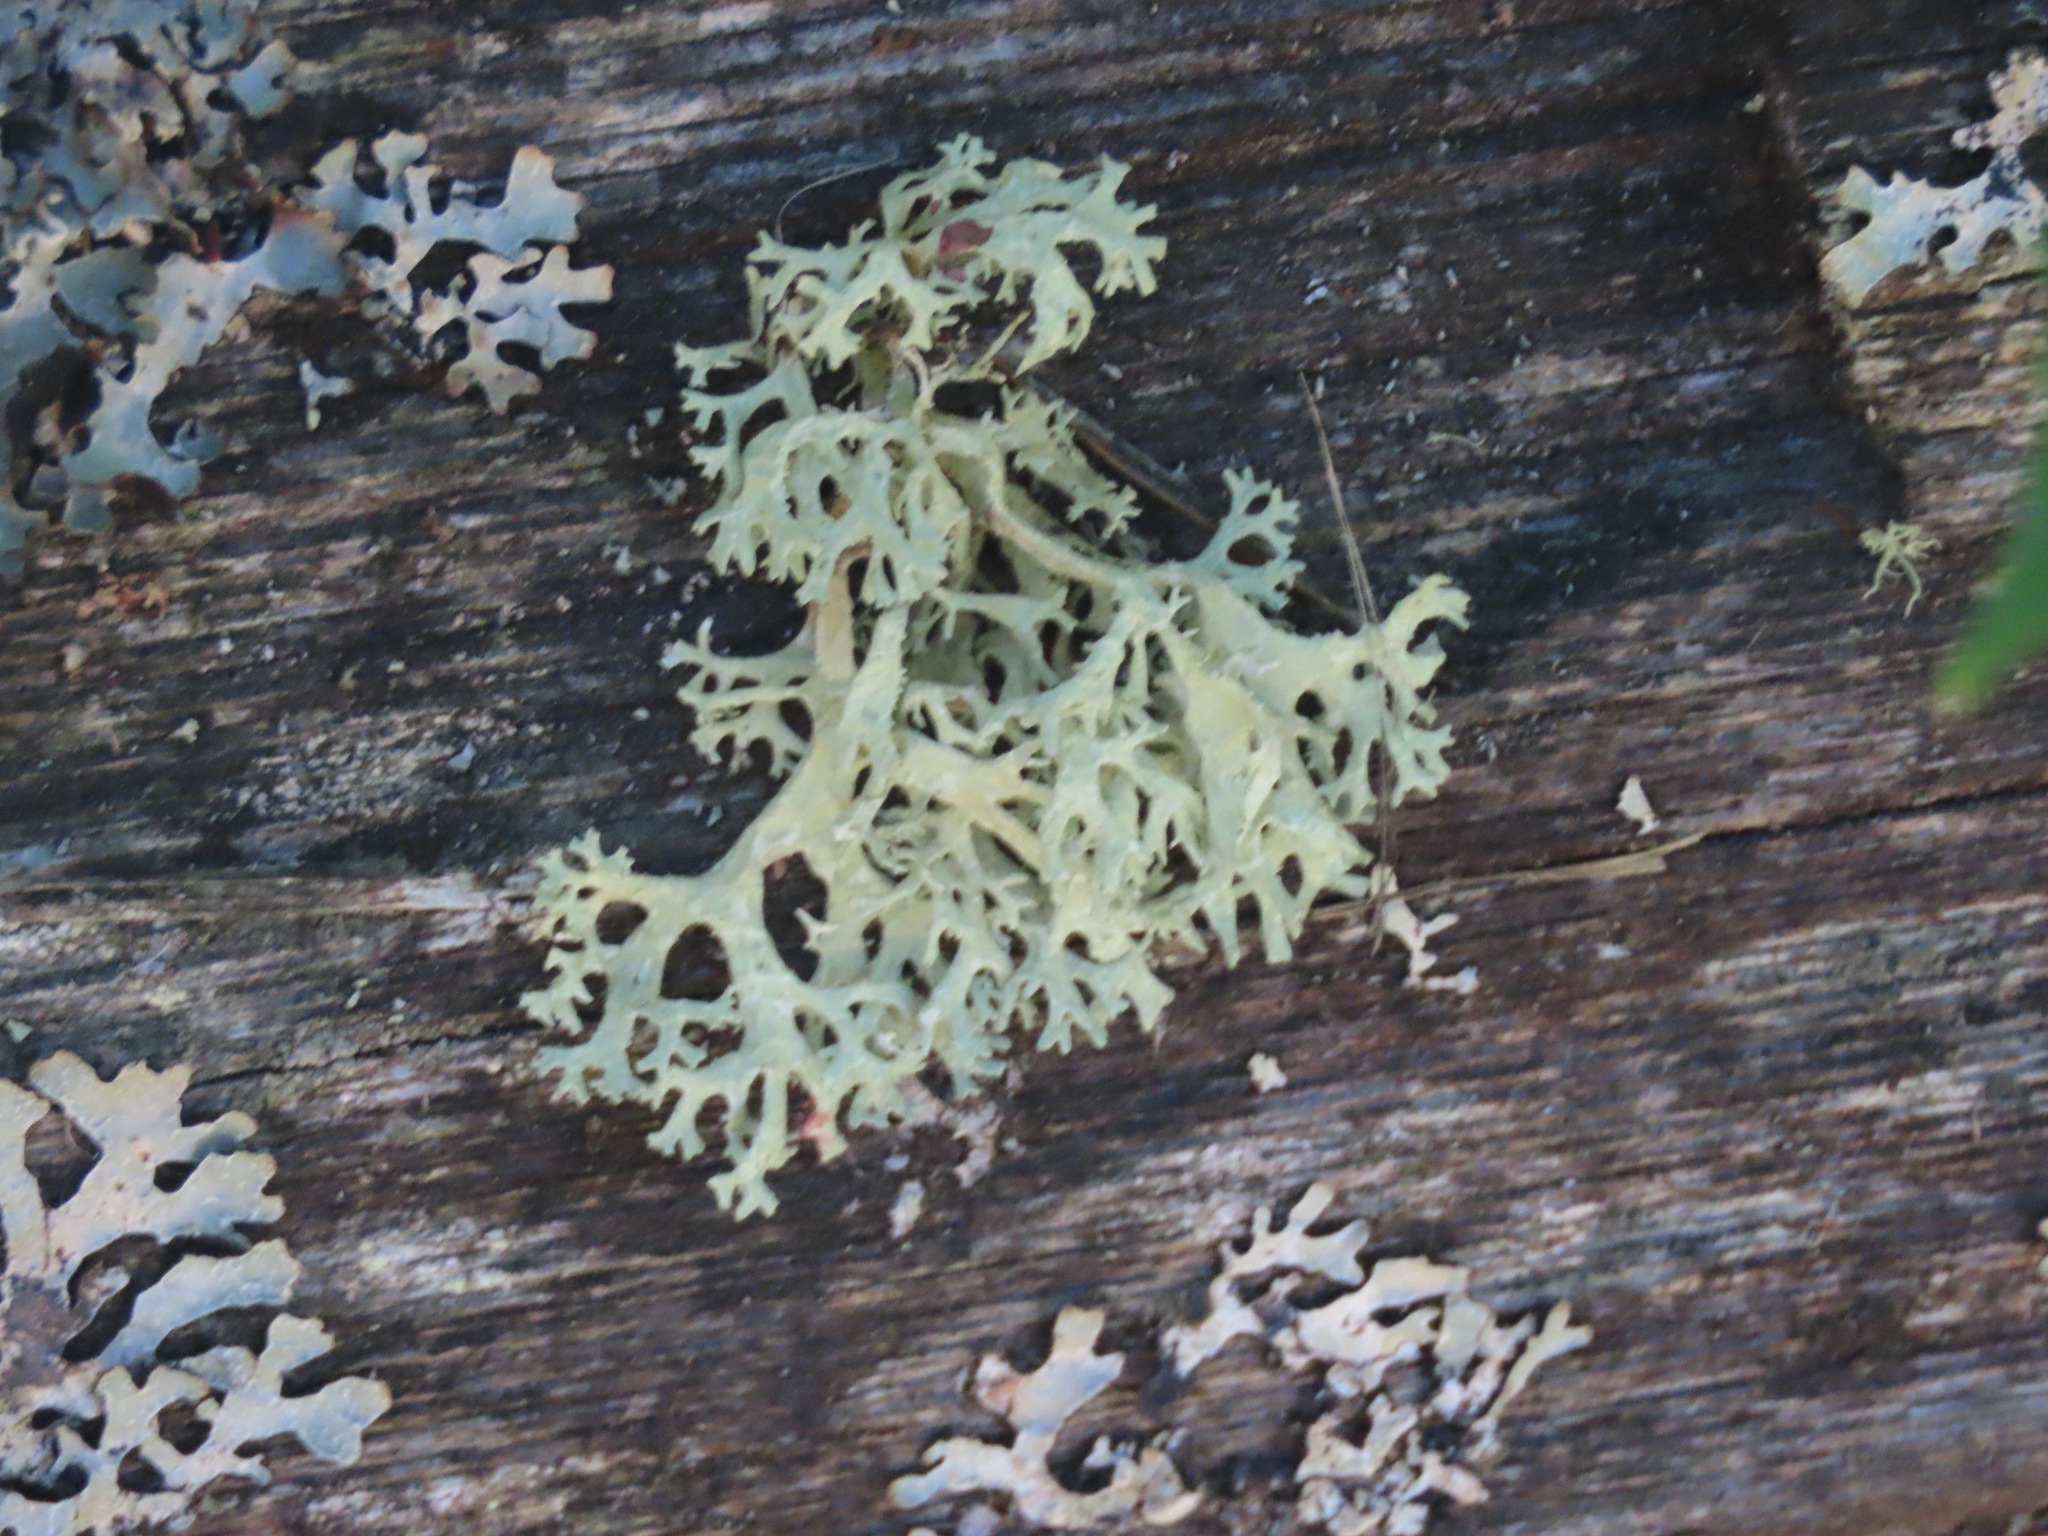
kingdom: Fungi
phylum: Ascomycota
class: Lecanoromycetes
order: Lecanorales
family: Parmeliaceae
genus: Evernia
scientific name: Evernia prunastri
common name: Oak moss
